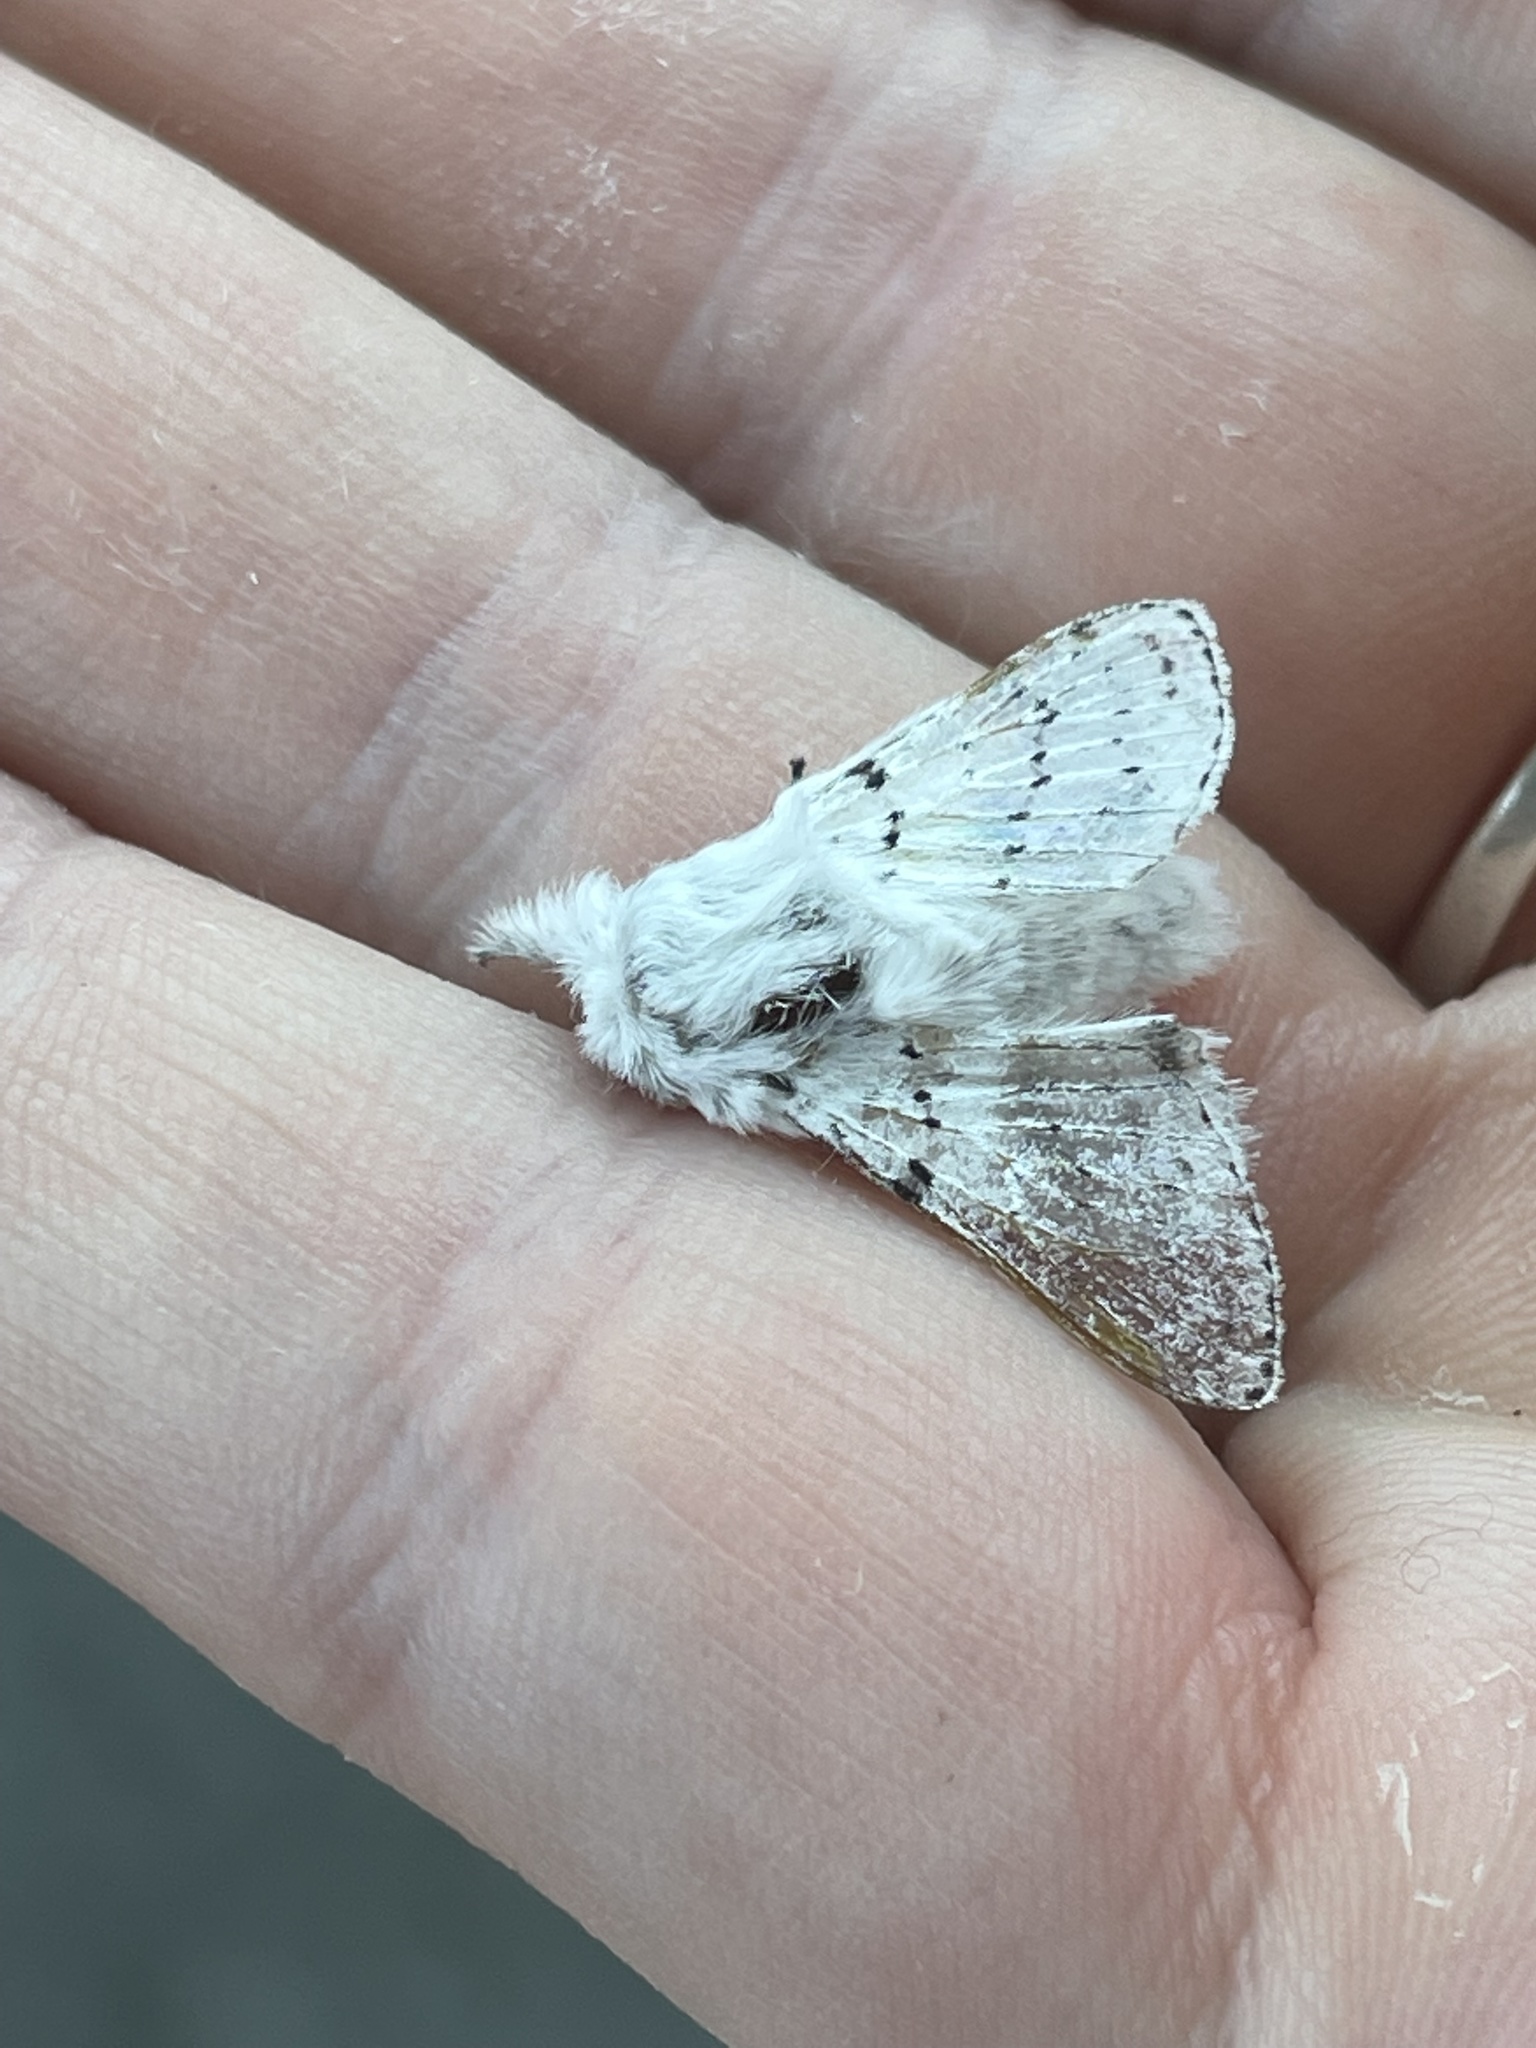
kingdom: Animalia
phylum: Arthropoda
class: Insecta
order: Lepidoptera
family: Lasiocampidae
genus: Artace
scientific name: Artace cribrarius
